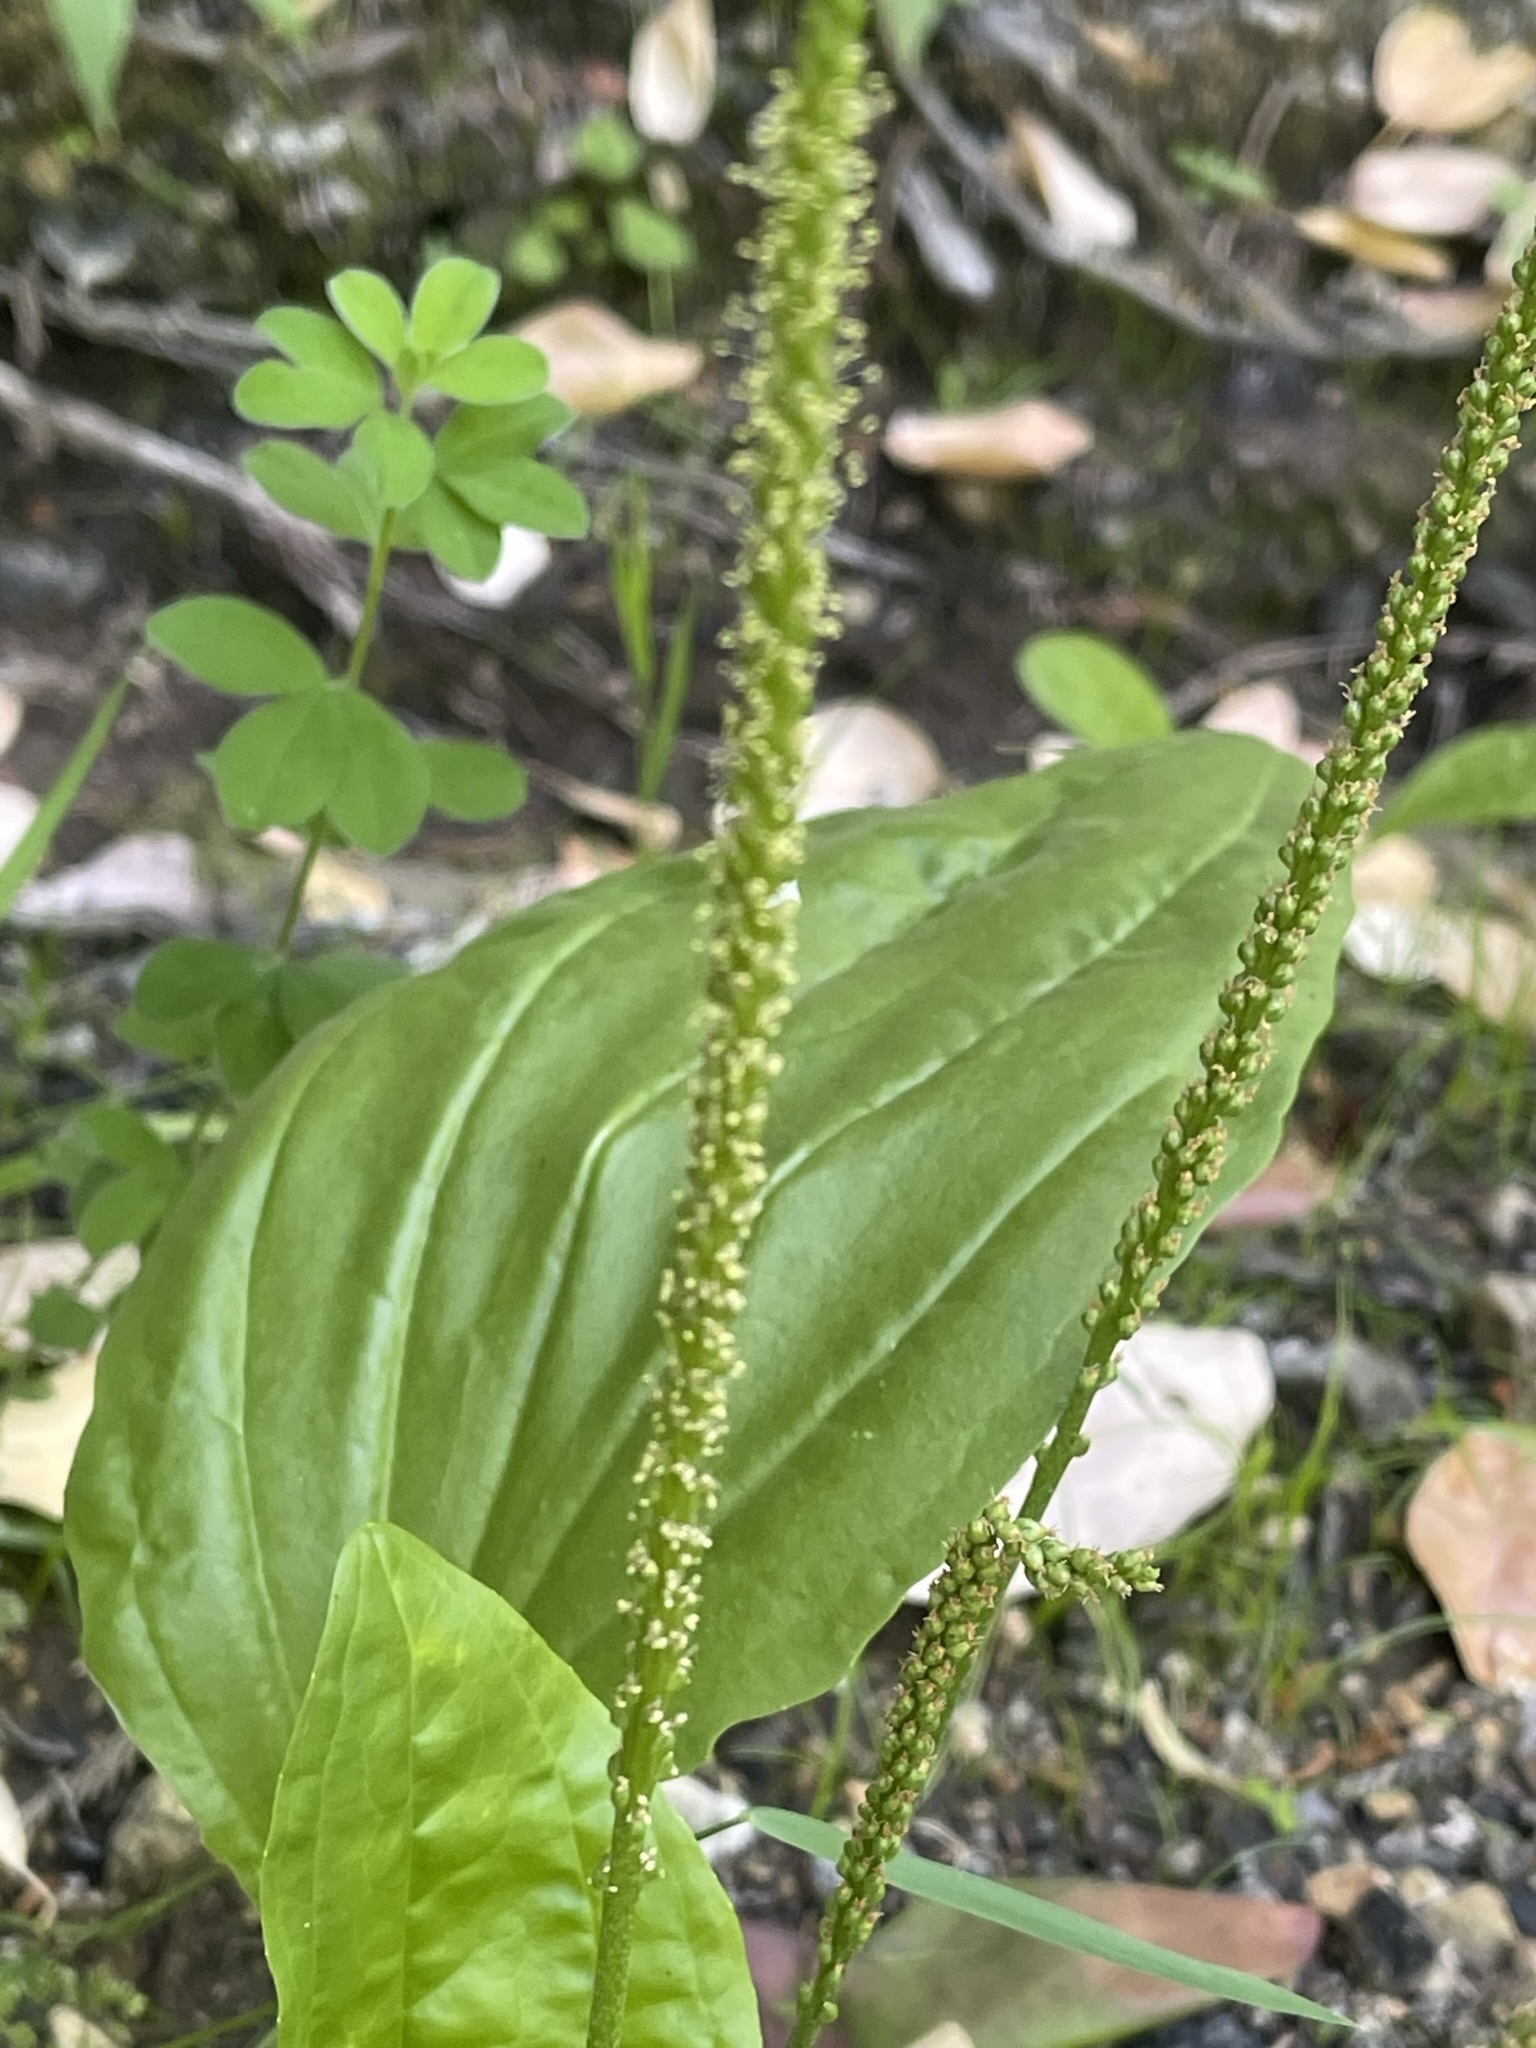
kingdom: Plantae
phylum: Tracheophyta
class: Magnoliopsida
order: Lamiales
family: Plantaginaceae
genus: Plantago
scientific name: Plantago major
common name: Common plantain
